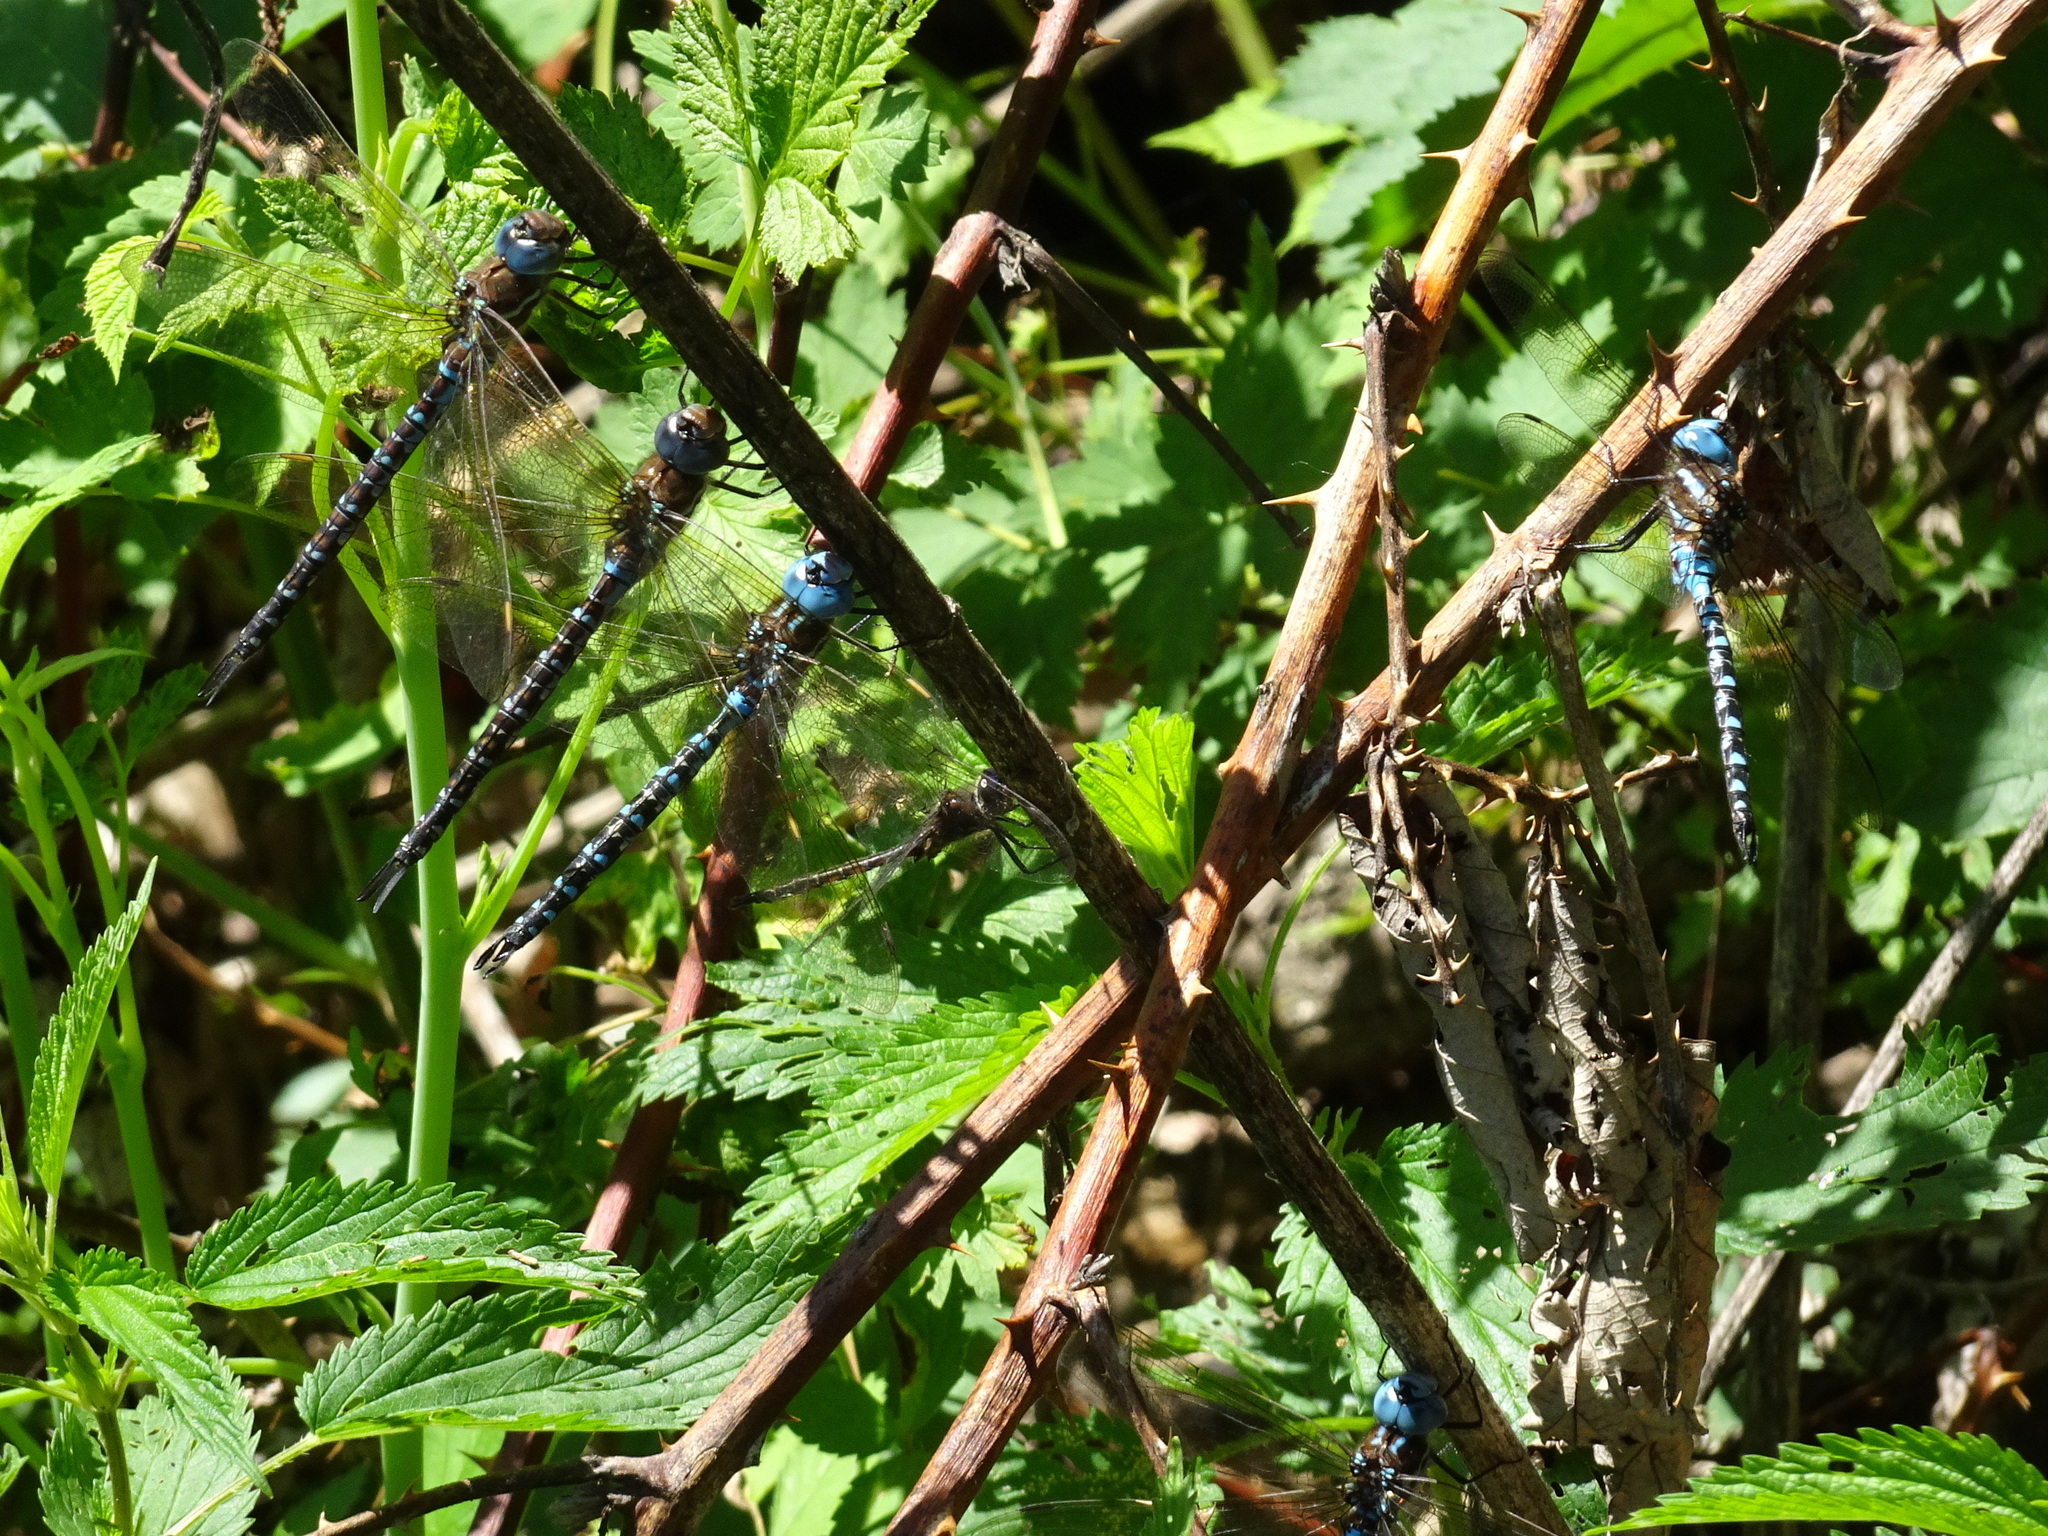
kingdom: Animalia
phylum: Arthropoda
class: Insecta
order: Odonata
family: Aeshnidae
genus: Rhionaeschna
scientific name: Rhionaeschna mutata
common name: Spatterdock darner
